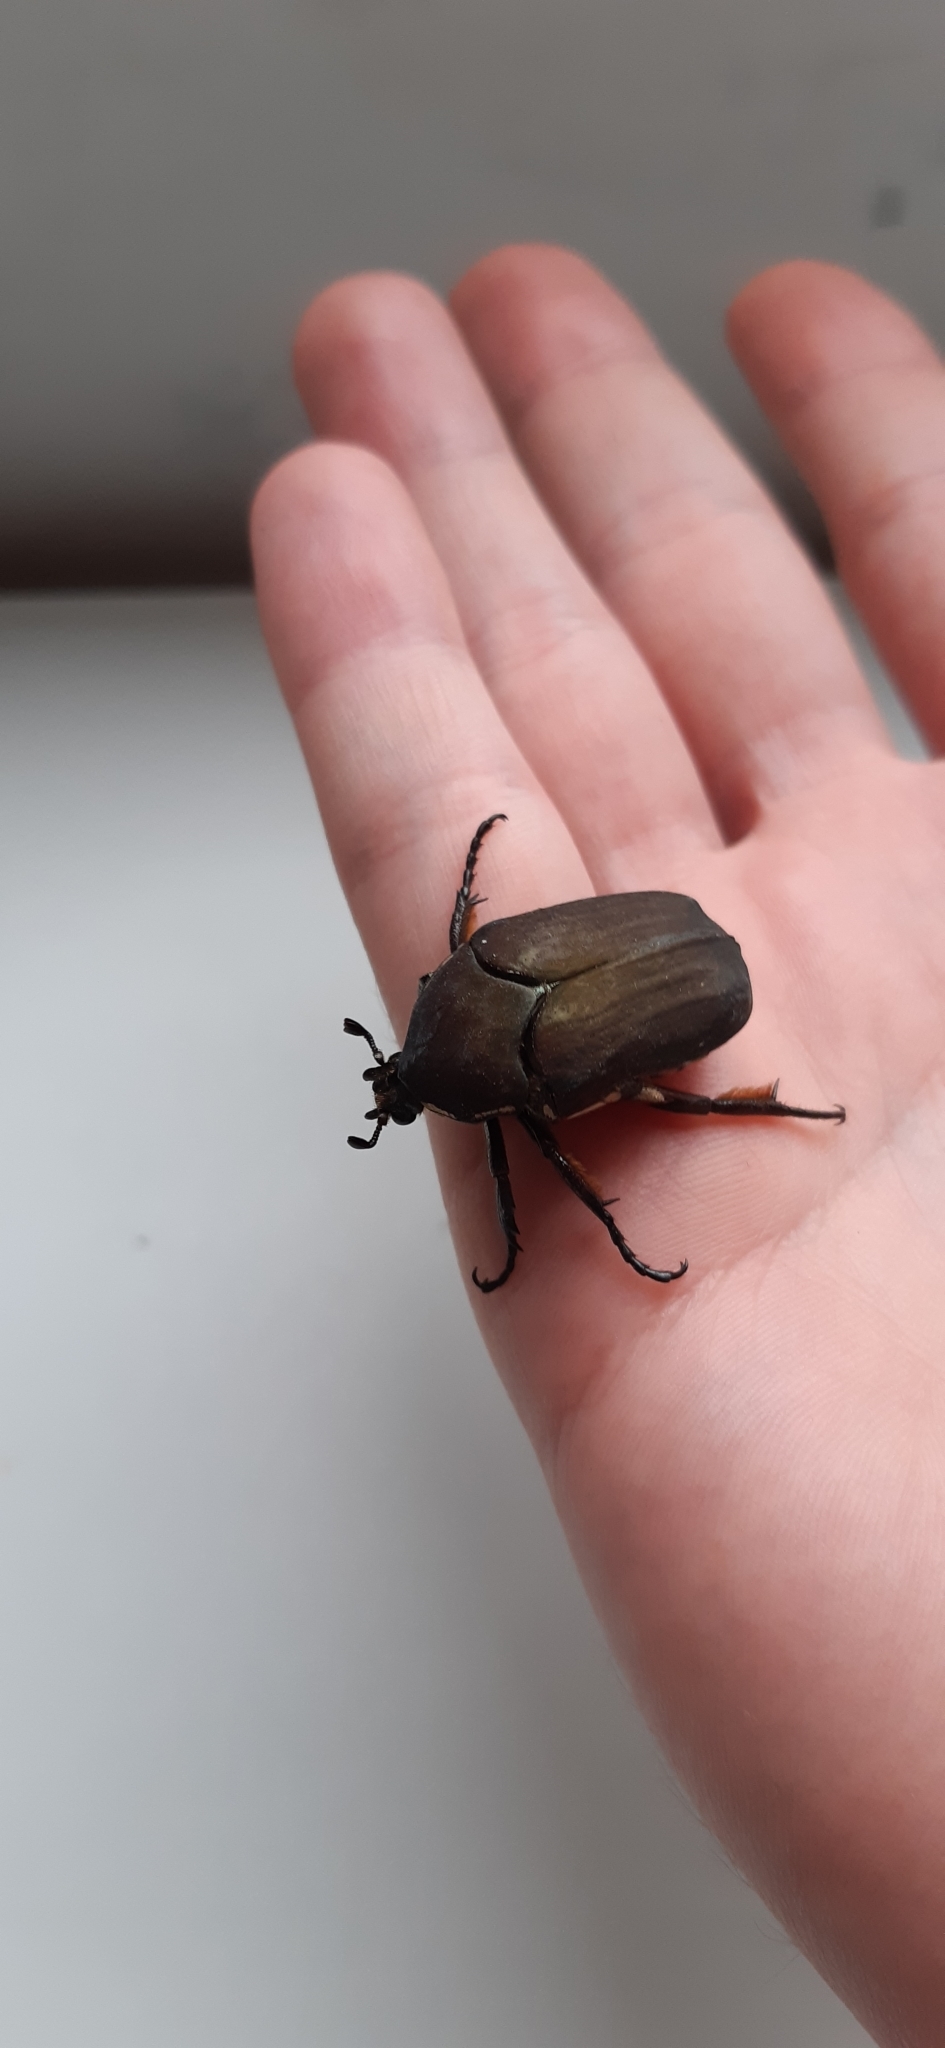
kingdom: Animalia
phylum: Arthropoda
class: Insecta
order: Coleoptera
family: Scarabaeidae
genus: Allorrhina
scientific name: Allorrhina menetriesi
